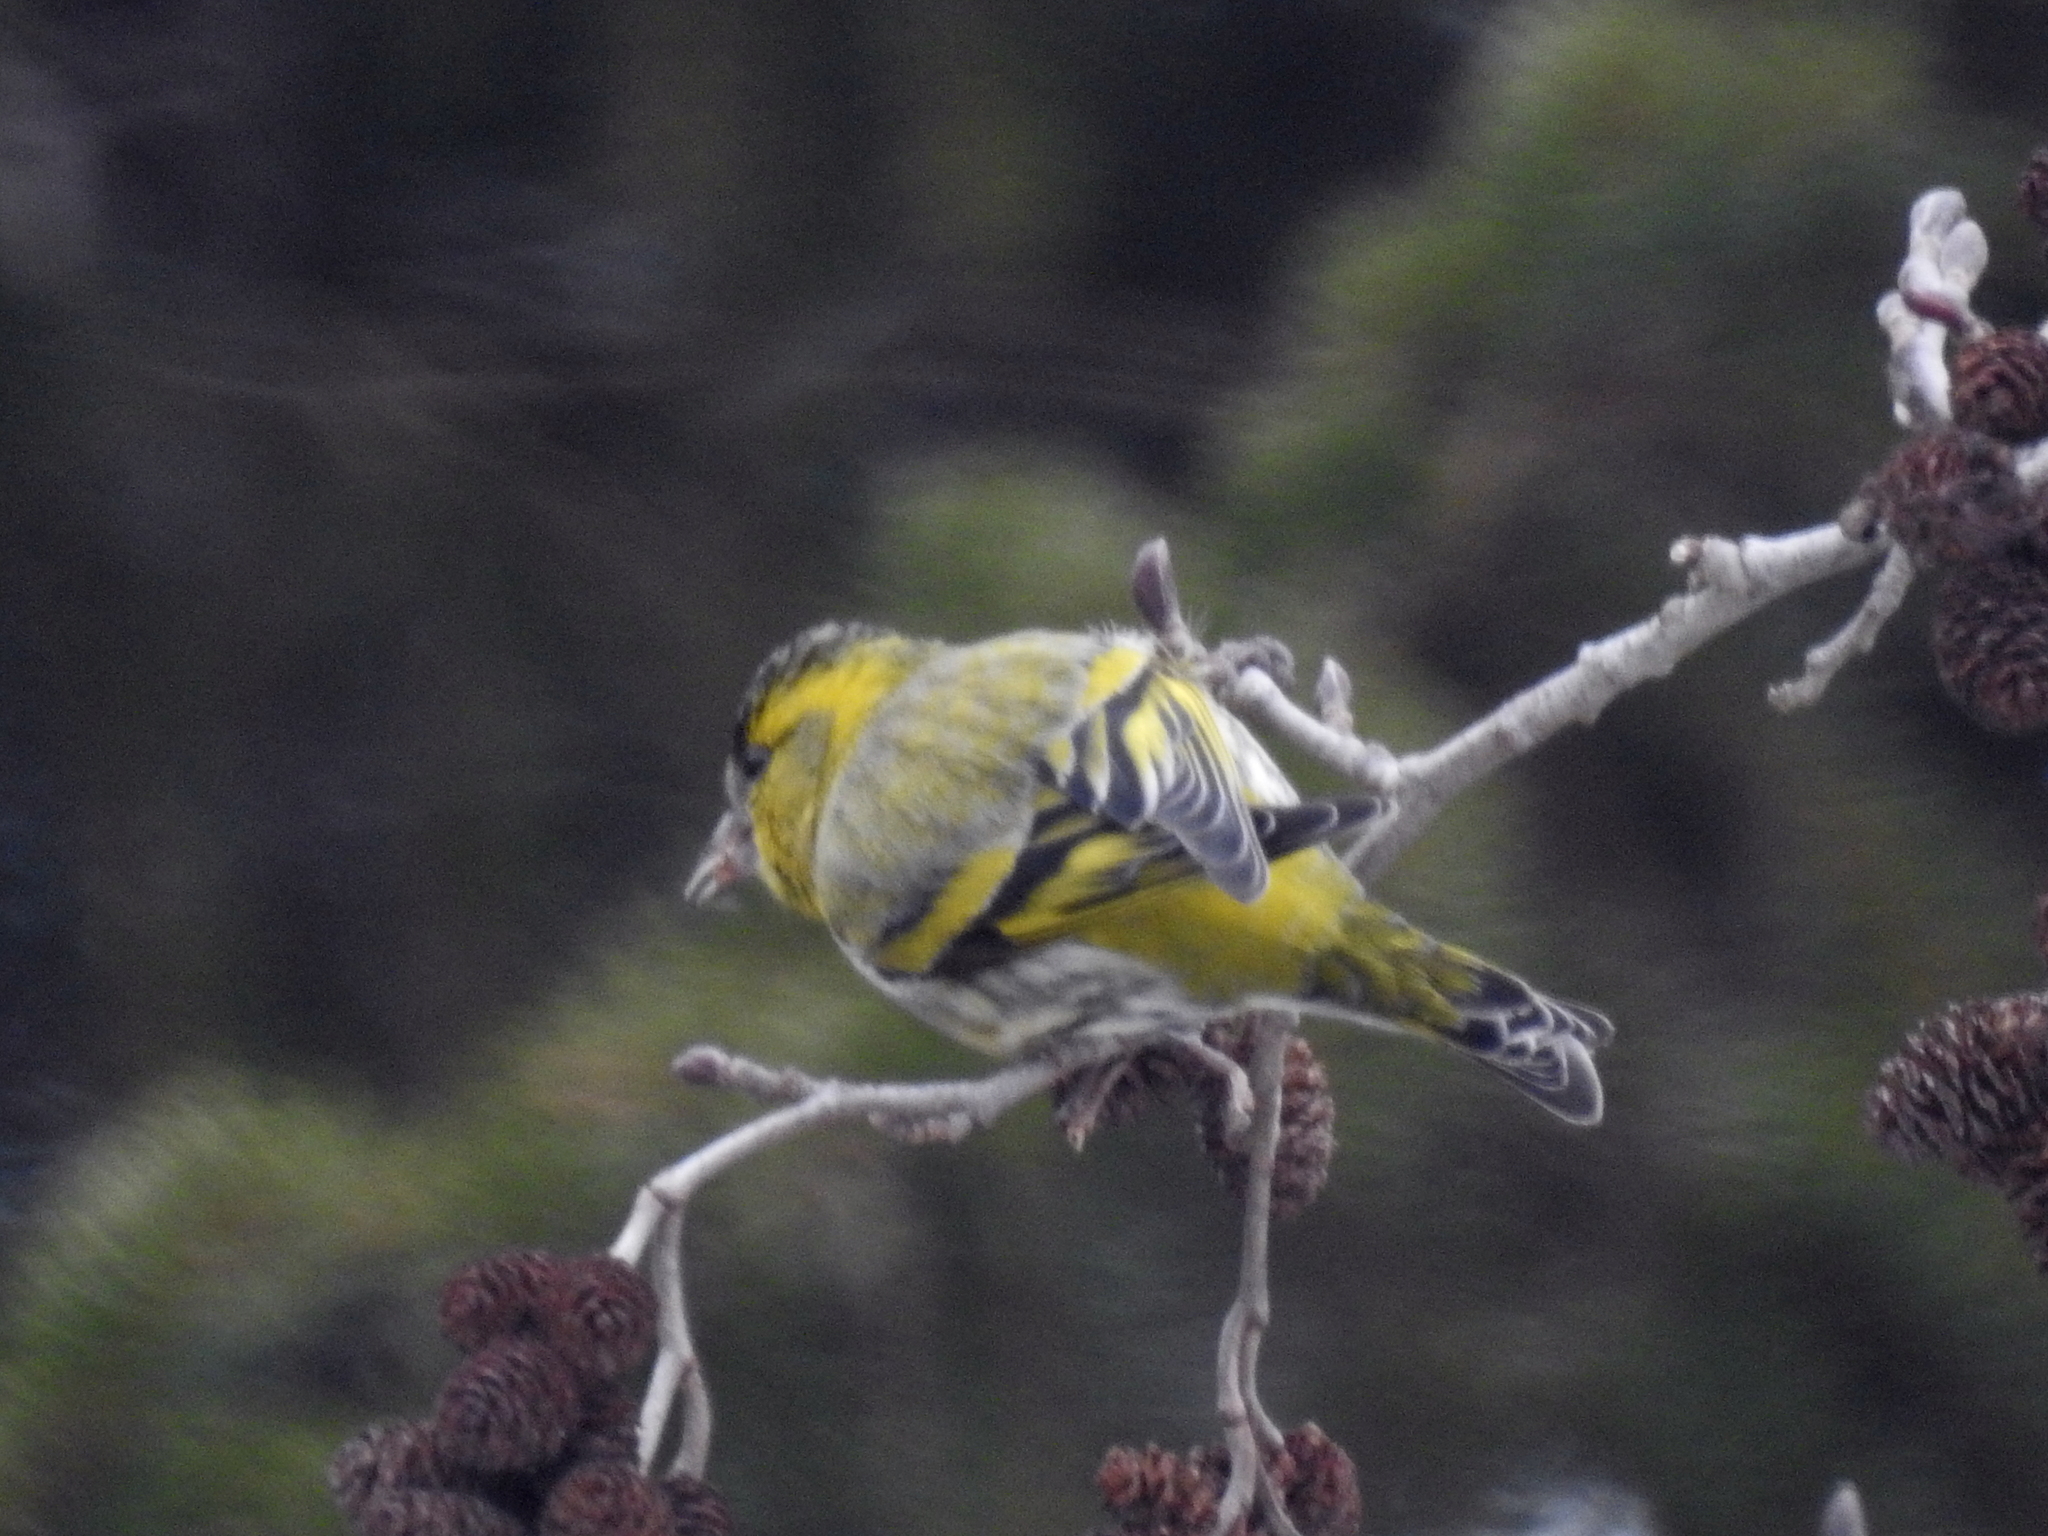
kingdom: Animalia
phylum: Chordata
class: Aves
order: Passeriformes
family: Fringillidae
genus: Spinus
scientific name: Spinus spinus
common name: Eurasian siskin
